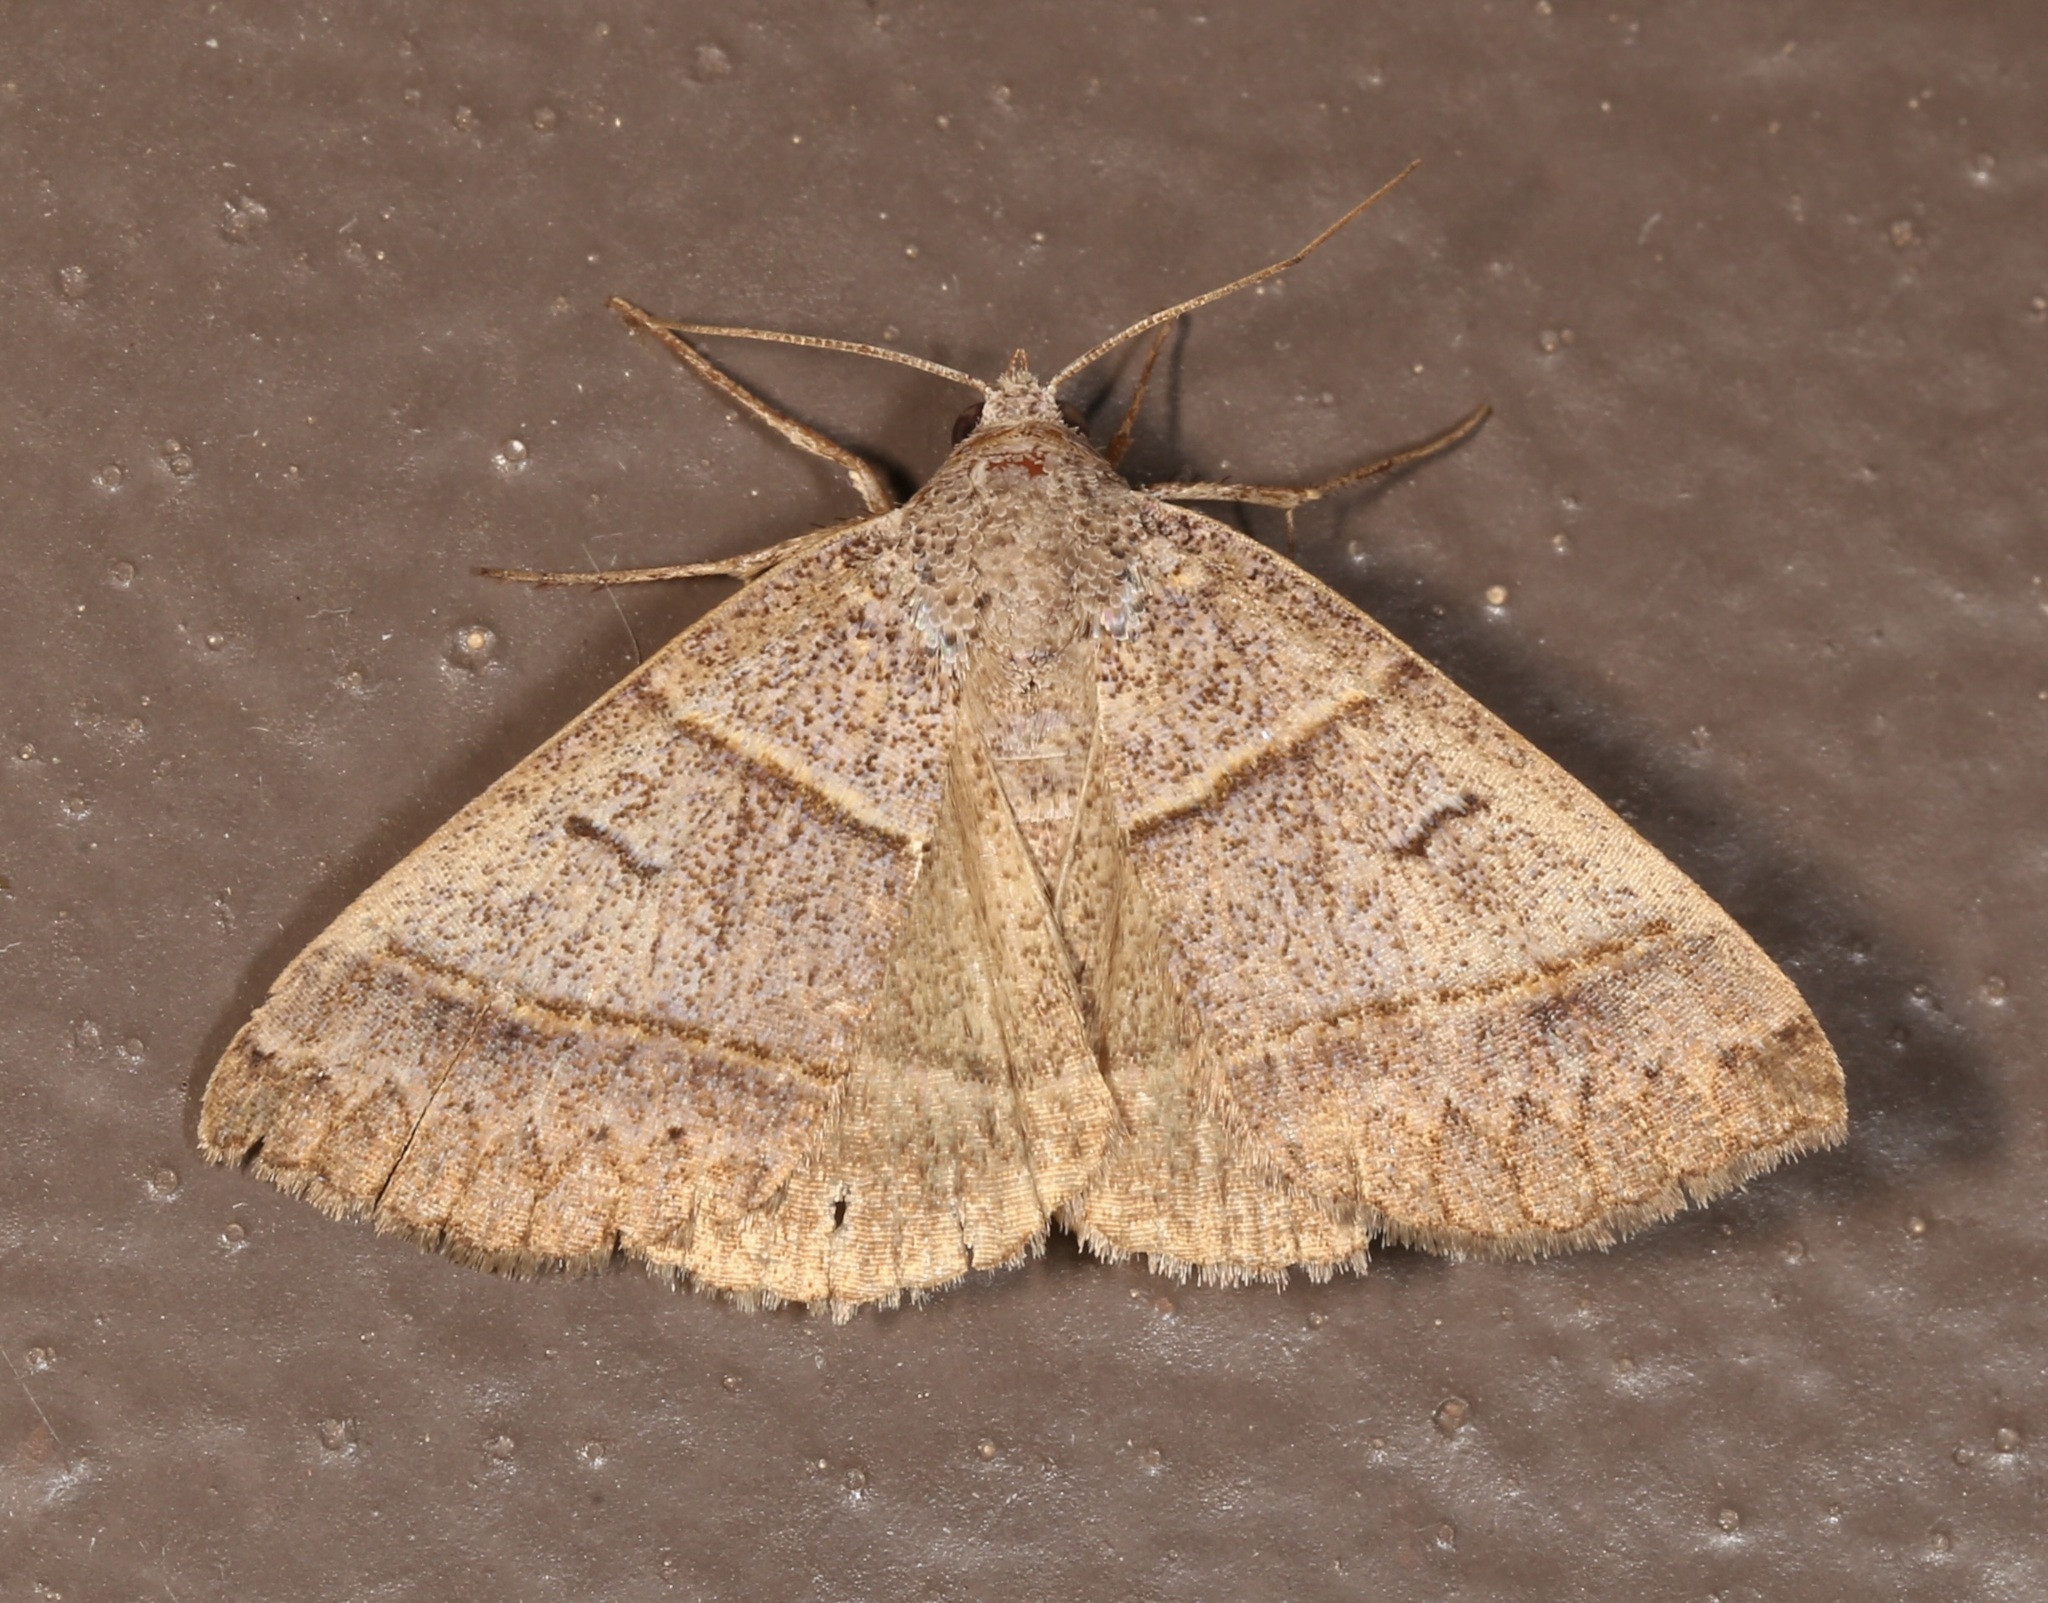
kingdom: Animalia
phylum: Arthropoda
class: Insecta
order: Lepidoptera
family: Erebidae
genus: Ptichodis
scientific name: Ptichodis ovalis
